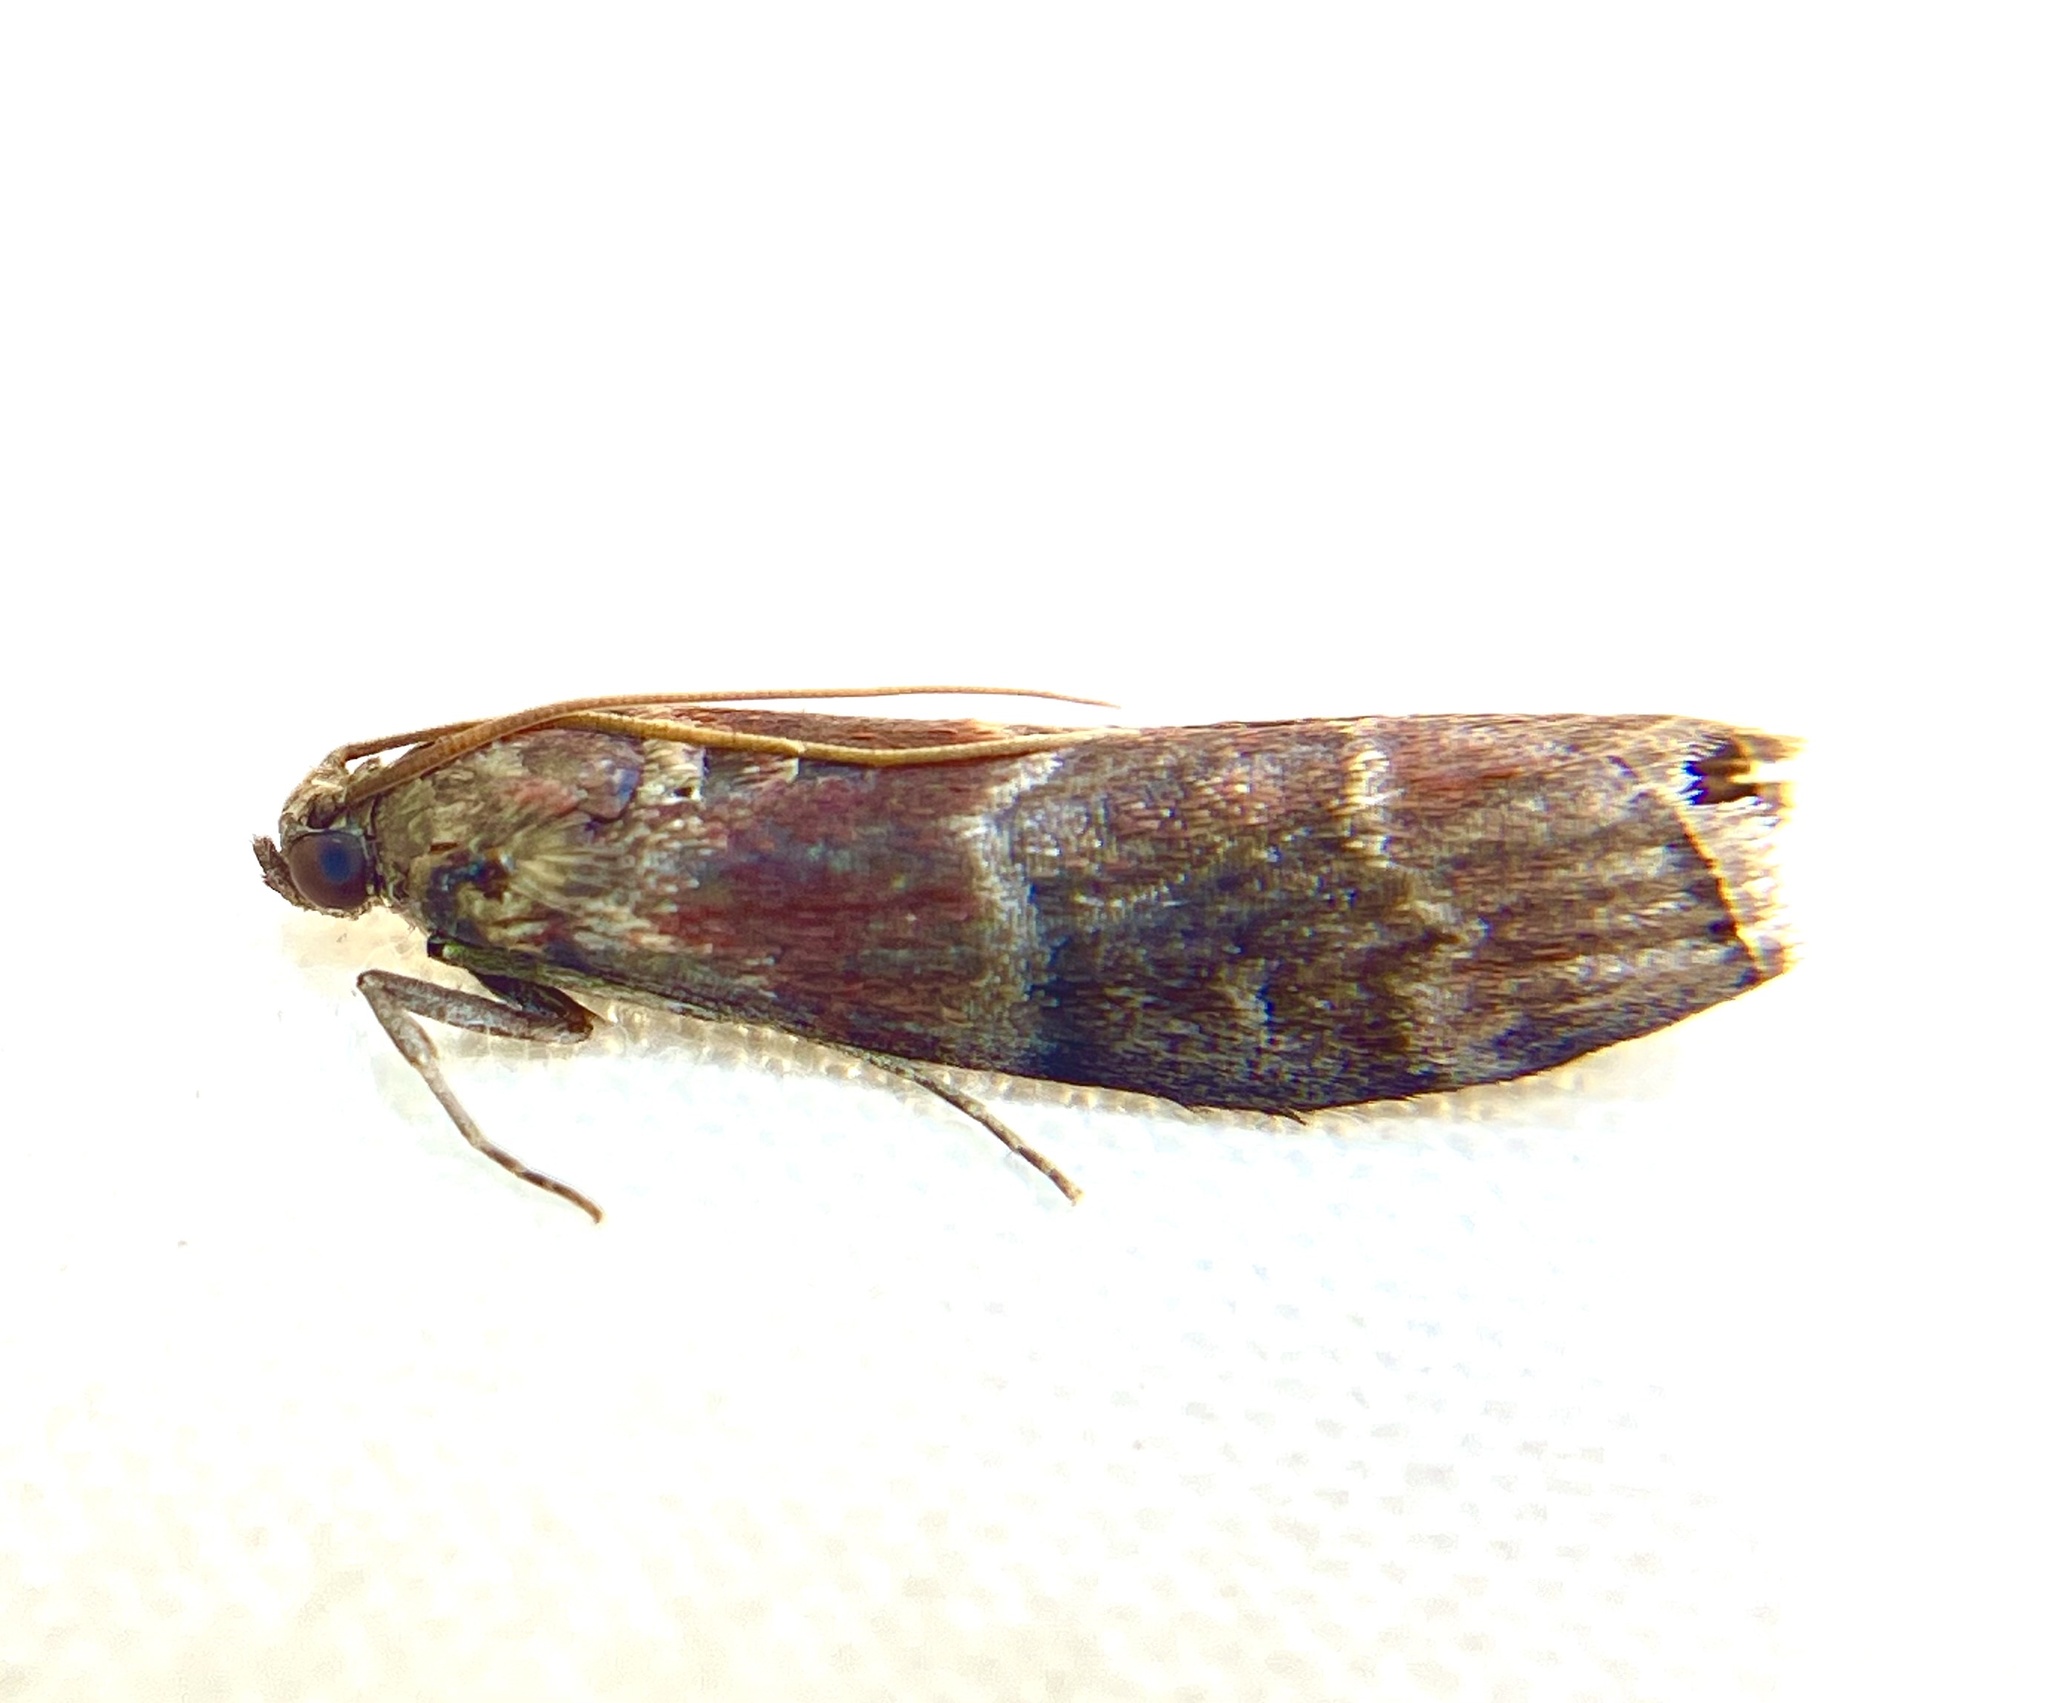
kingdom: Animalia
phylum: Arthropoda
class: Insecta
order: Lepidoptera
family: Pyralidae
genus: Euzophera
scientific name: Euzophera ostricolorella
